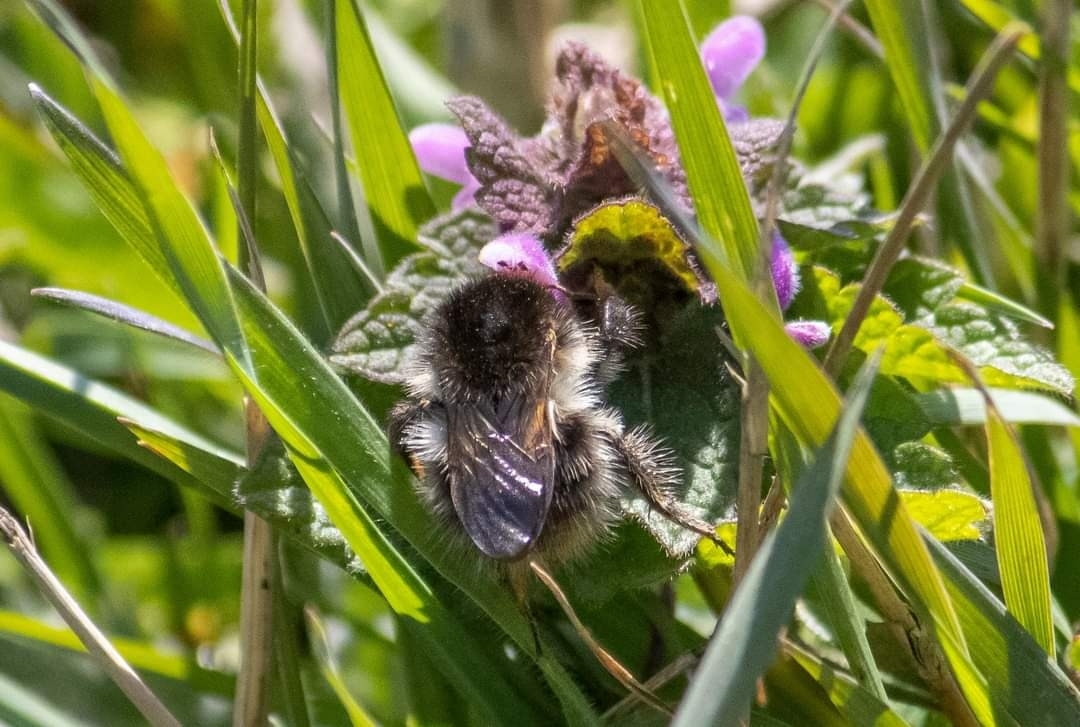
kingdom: Animalia
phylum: Arthropoda
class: Insecta
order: Hymenoptera
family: Apidae
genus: Bombus
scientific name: Bombus pascuorum
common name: Common carder bee
